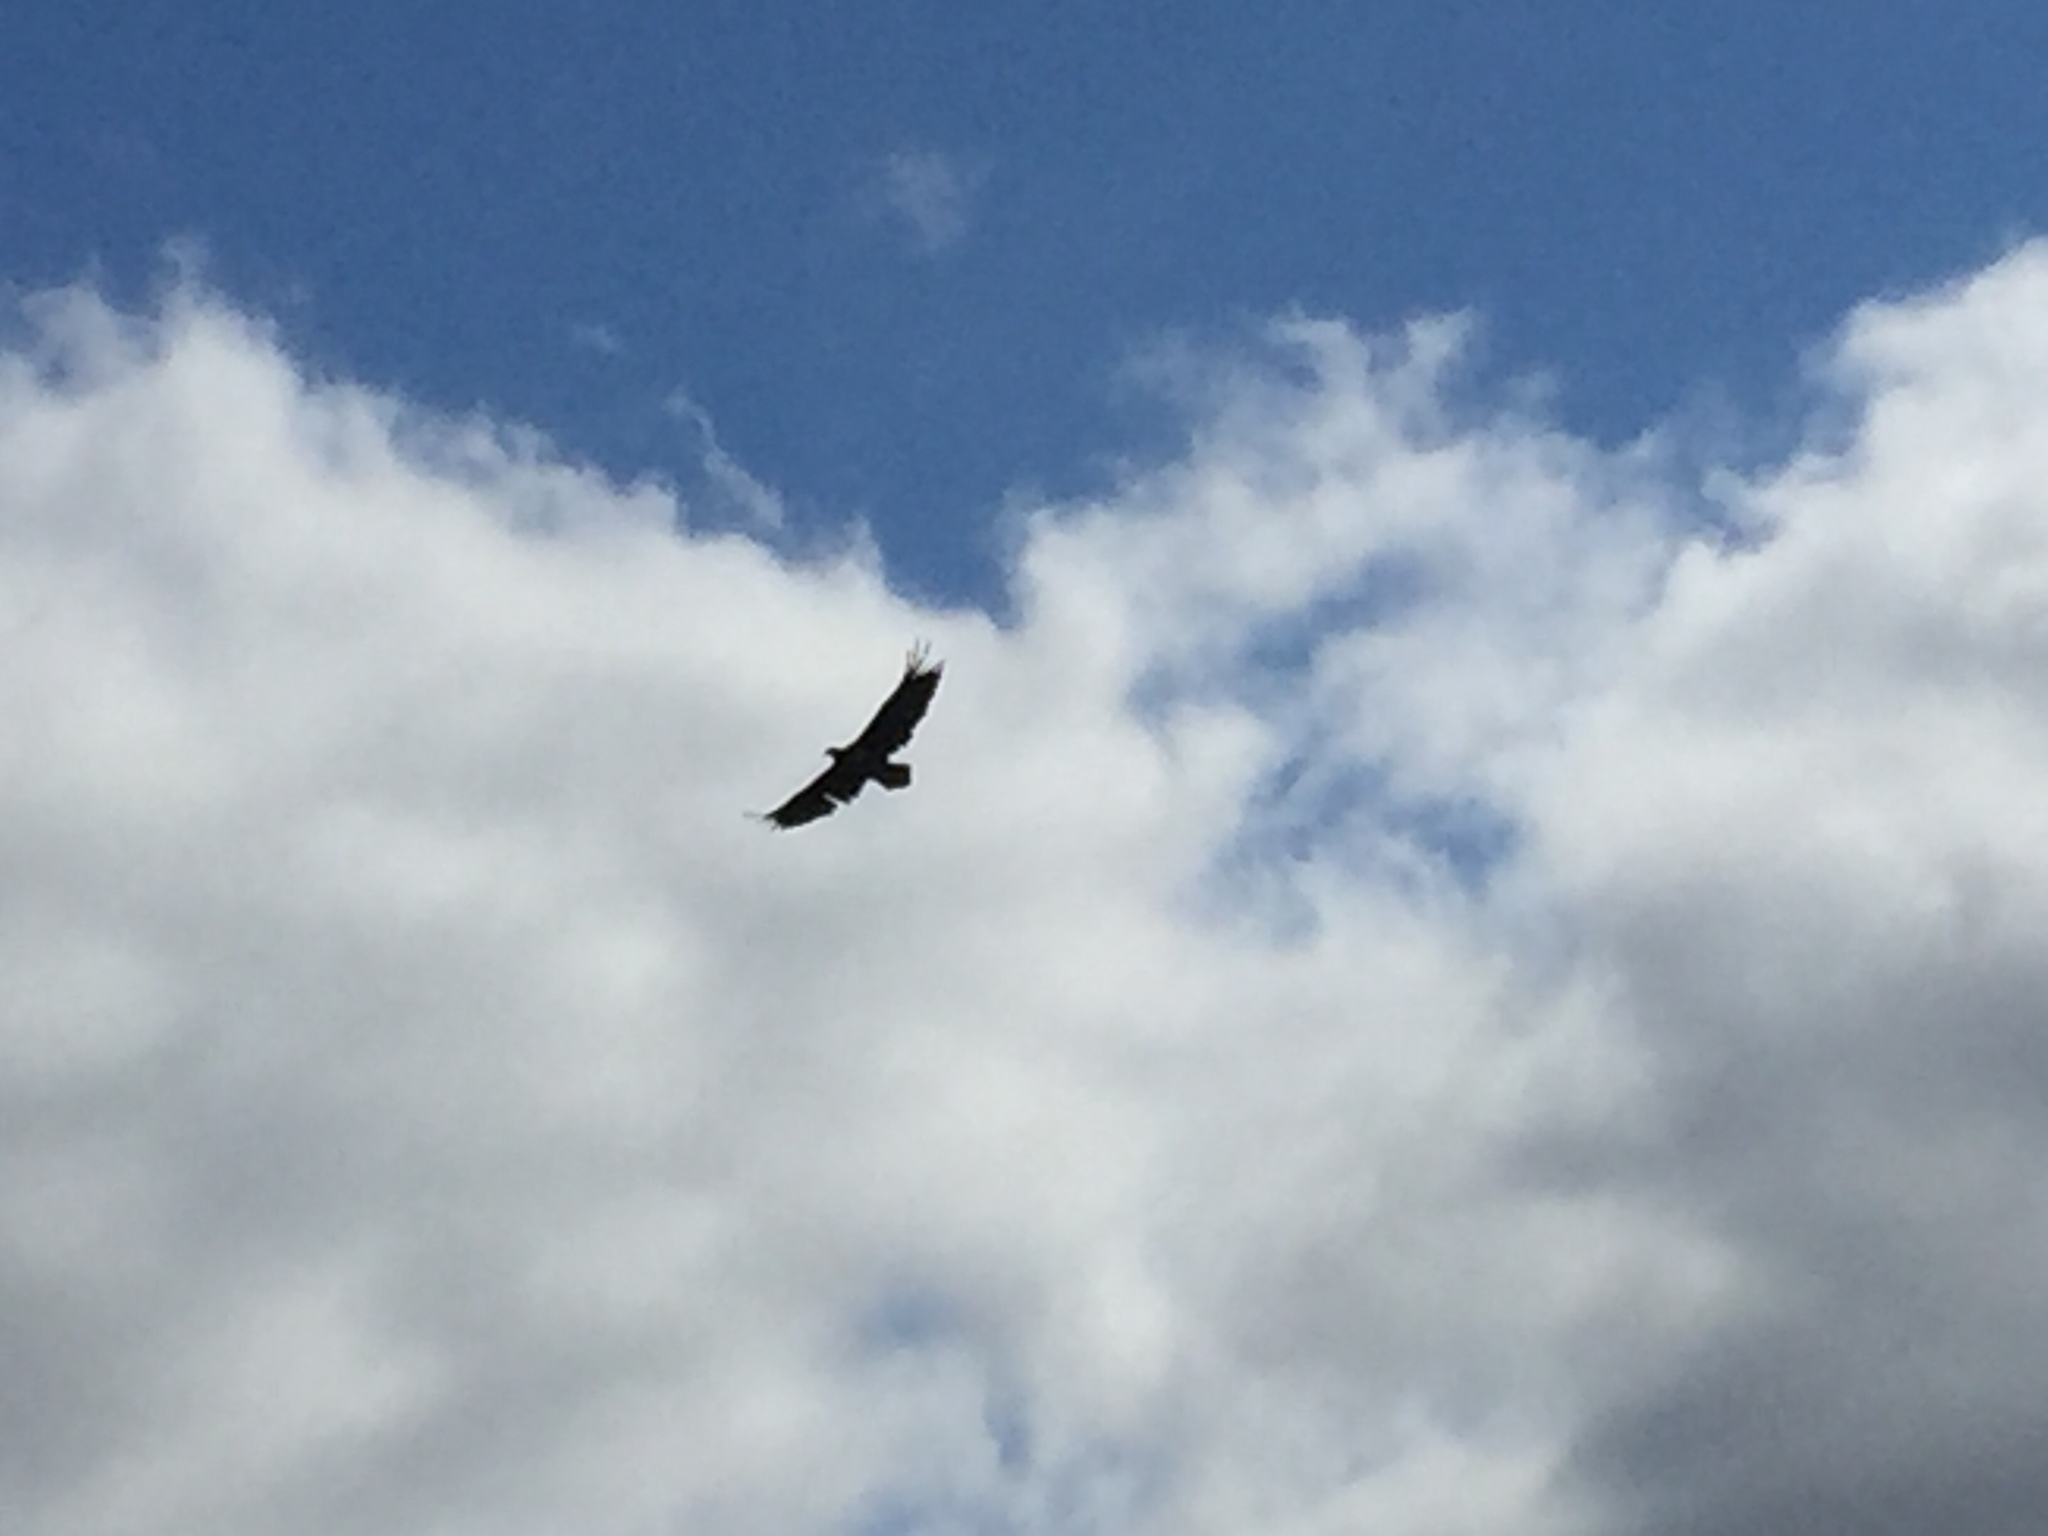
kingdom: Animalia
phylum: Chordata
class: Aves
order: Accipitriformes
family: Accipitridae
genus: Haliaeetus
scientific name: Haliaeetus albicilla
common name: White-tailed eagle
